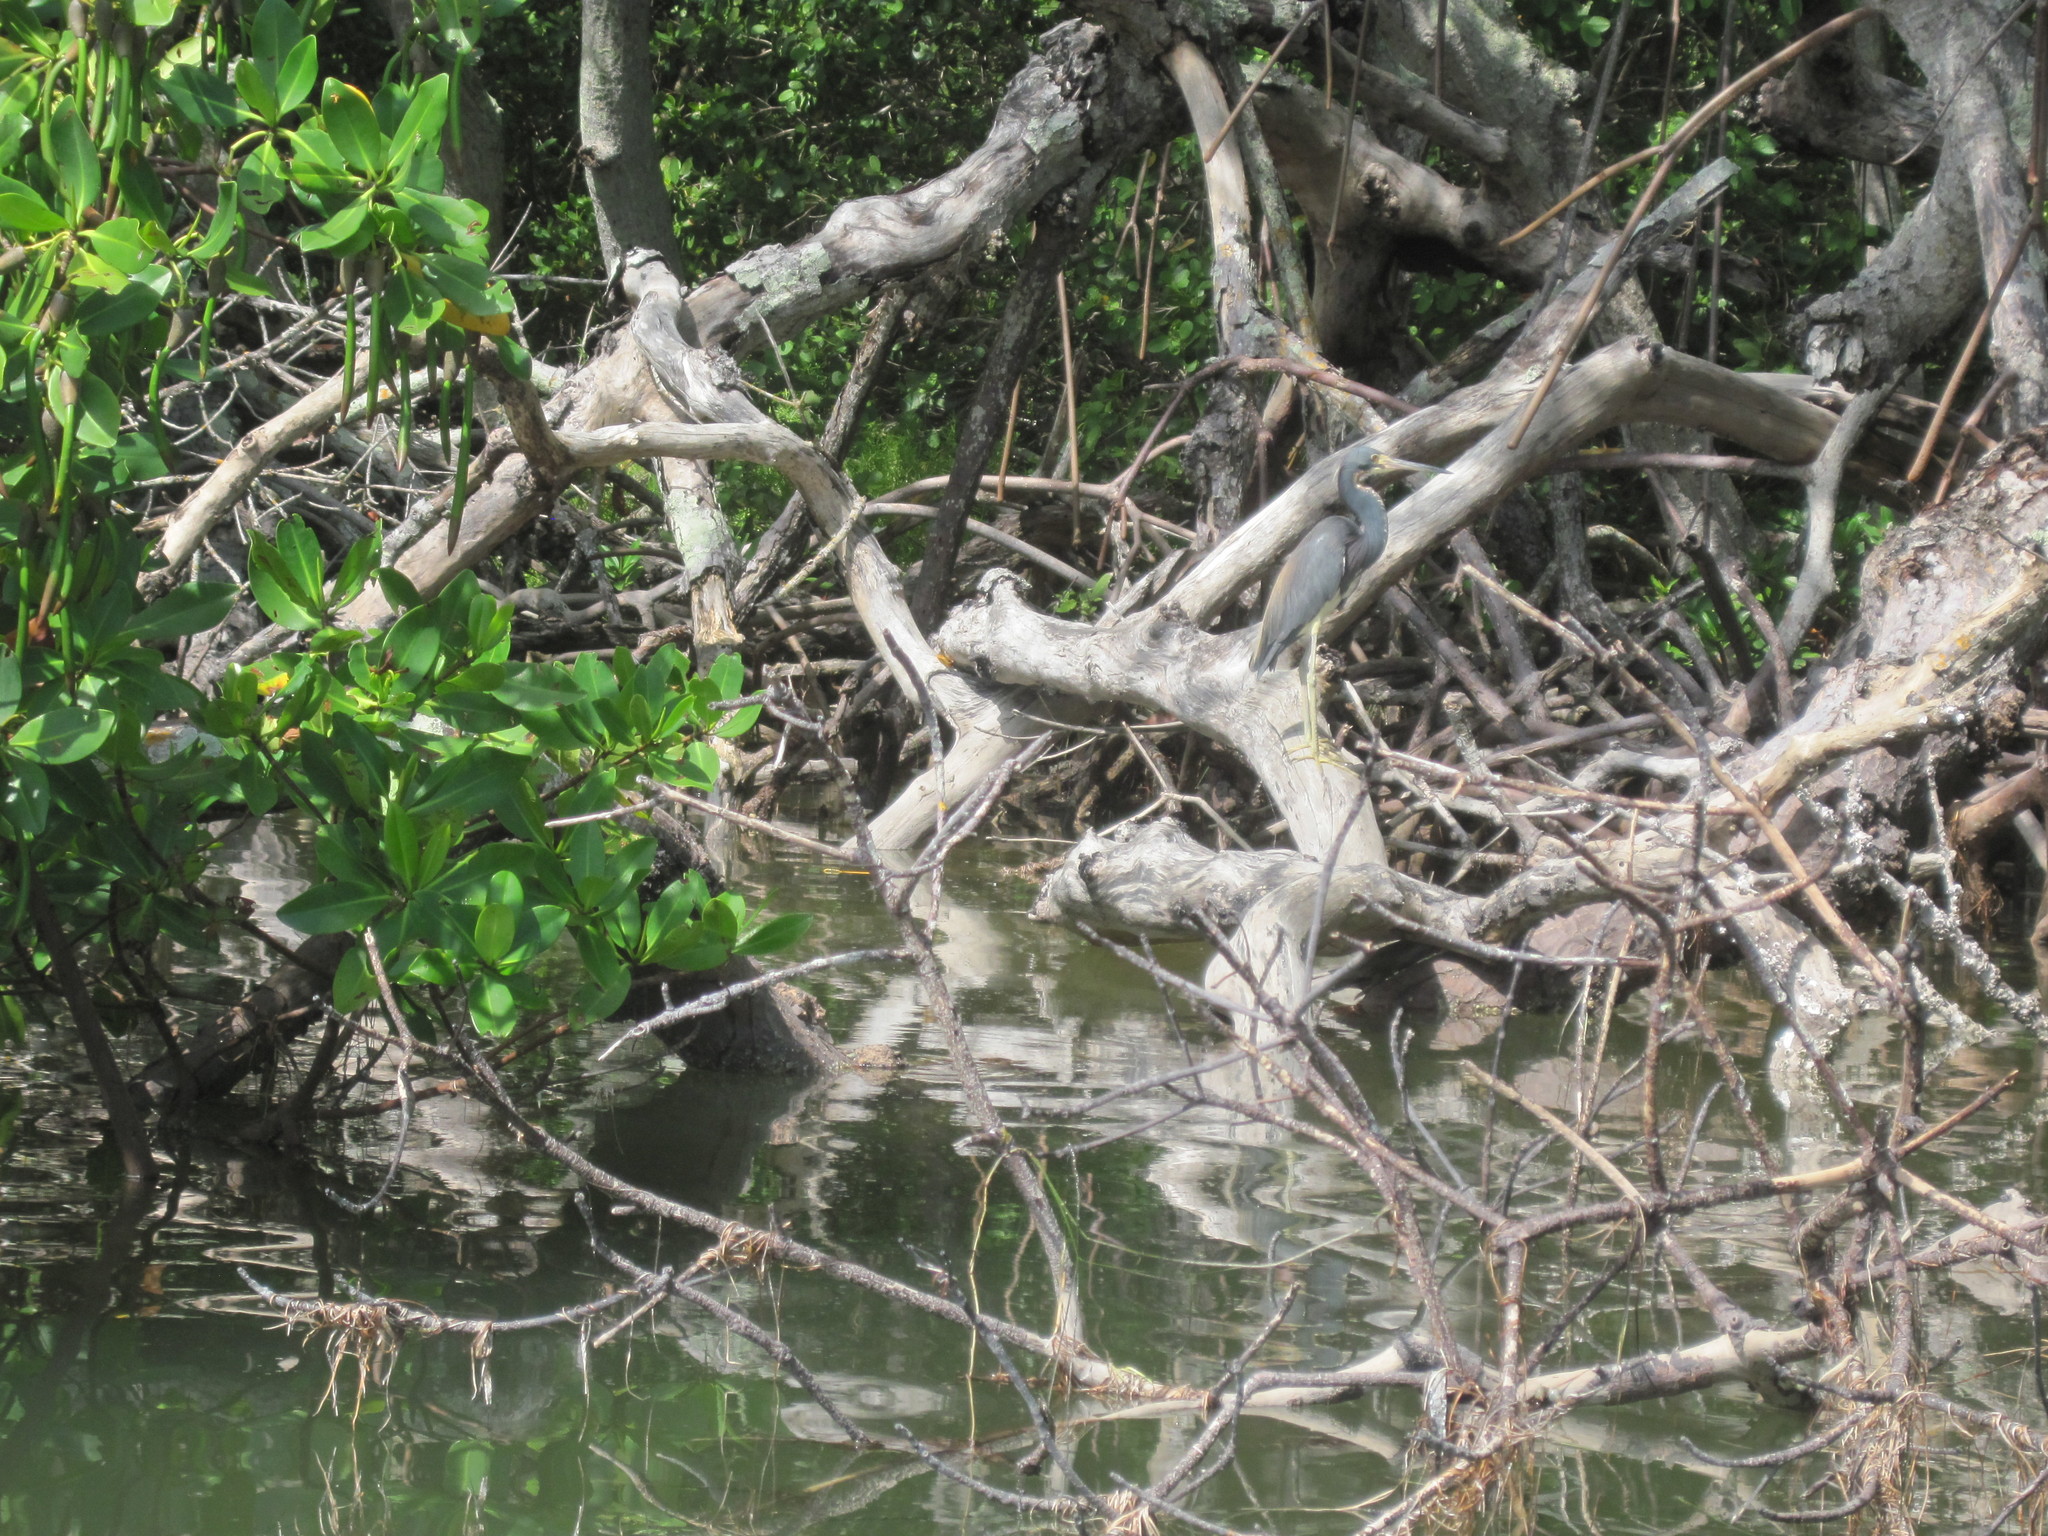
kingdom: Animalia
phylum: Chordata
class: Aves
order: Pelecaniformes
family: Ardeidae
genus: Egretta
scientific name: Egretta tricolor
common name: Tricolored heron
